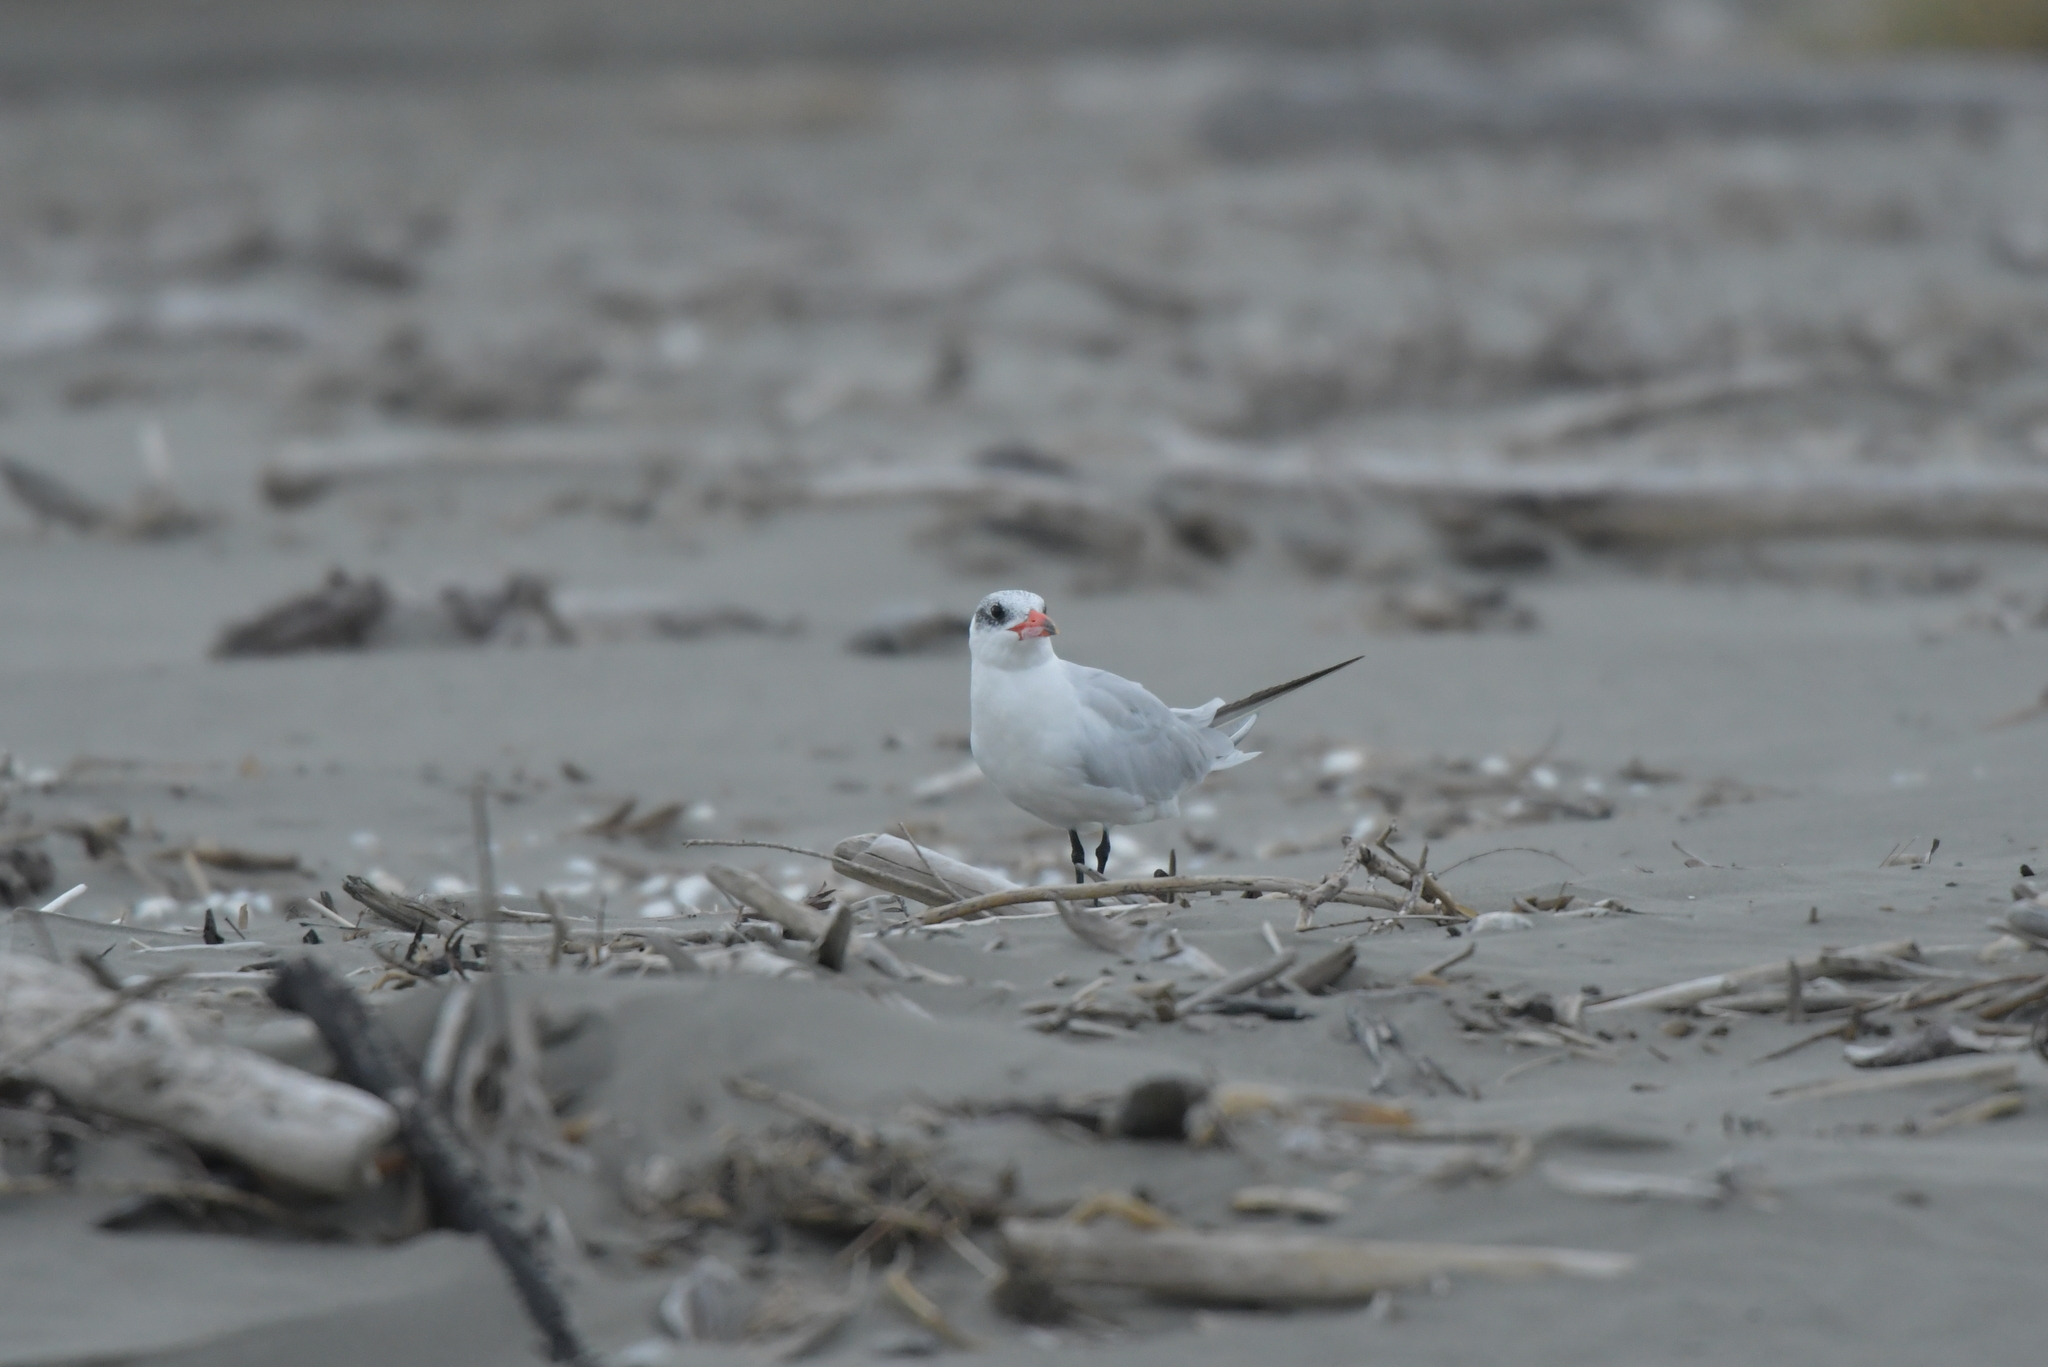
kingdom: Animalia
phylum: Chordata
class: Aves
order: Charadriiformes
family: Laridae
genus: Hydroprogne
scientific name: Hydroprogne caspia
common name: Caspian tern
